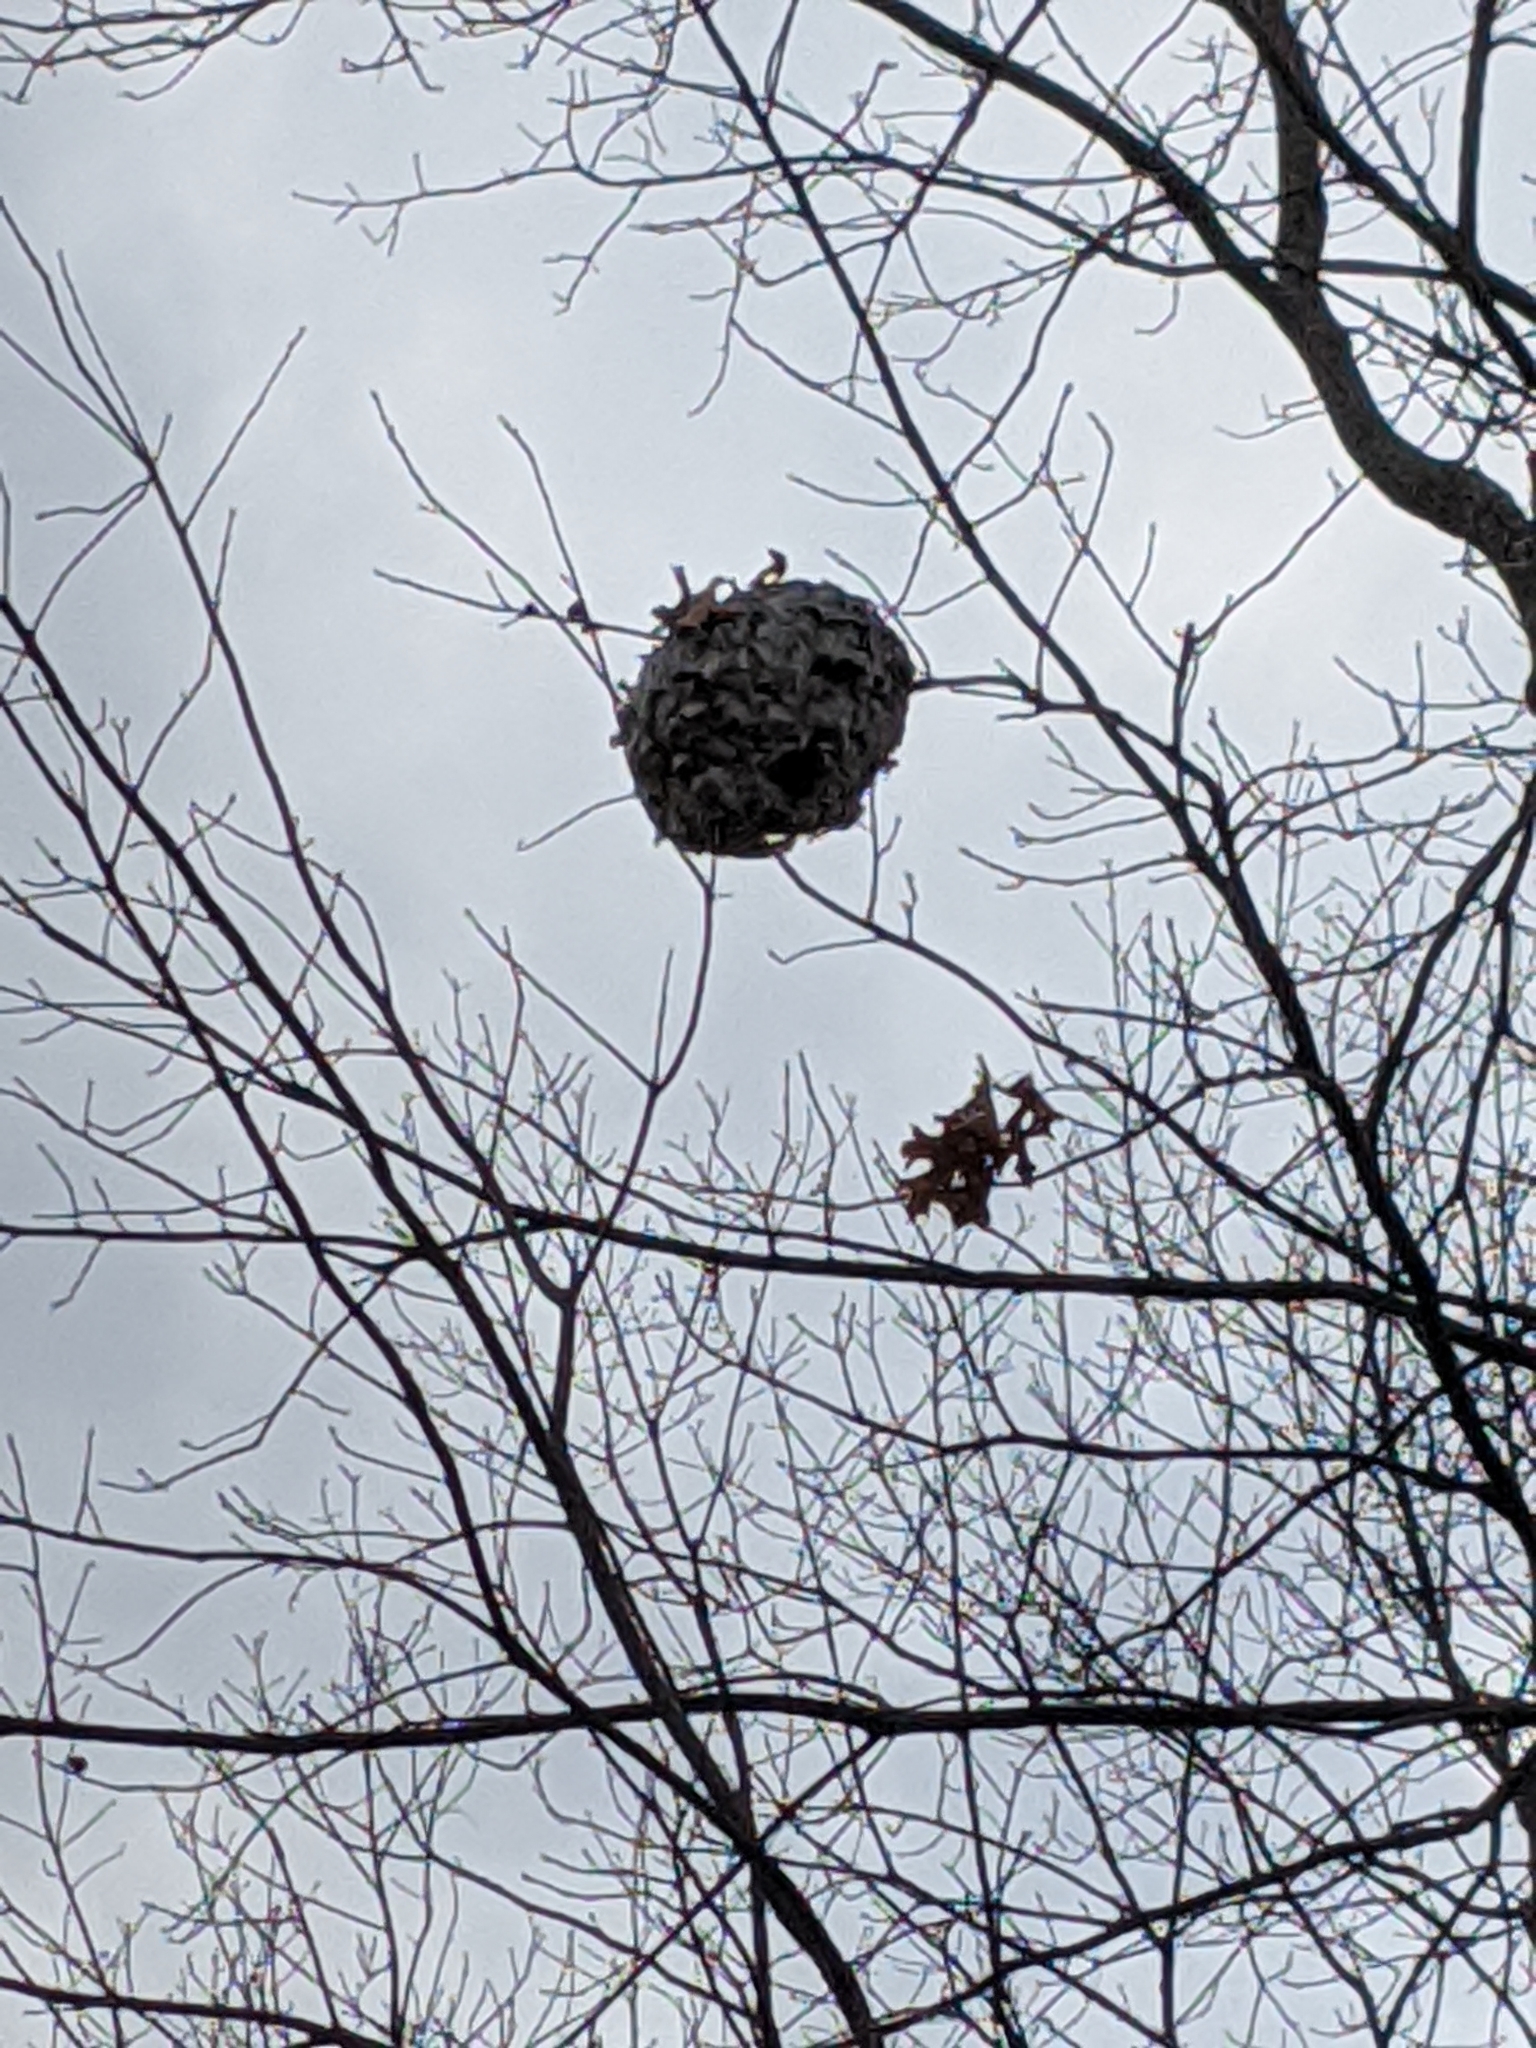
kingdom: Animalia
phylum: Arthropoda
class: Insecta
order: Hymenoptera
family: Vespidae
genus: Dolichovespula
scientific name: Dolichovespula
